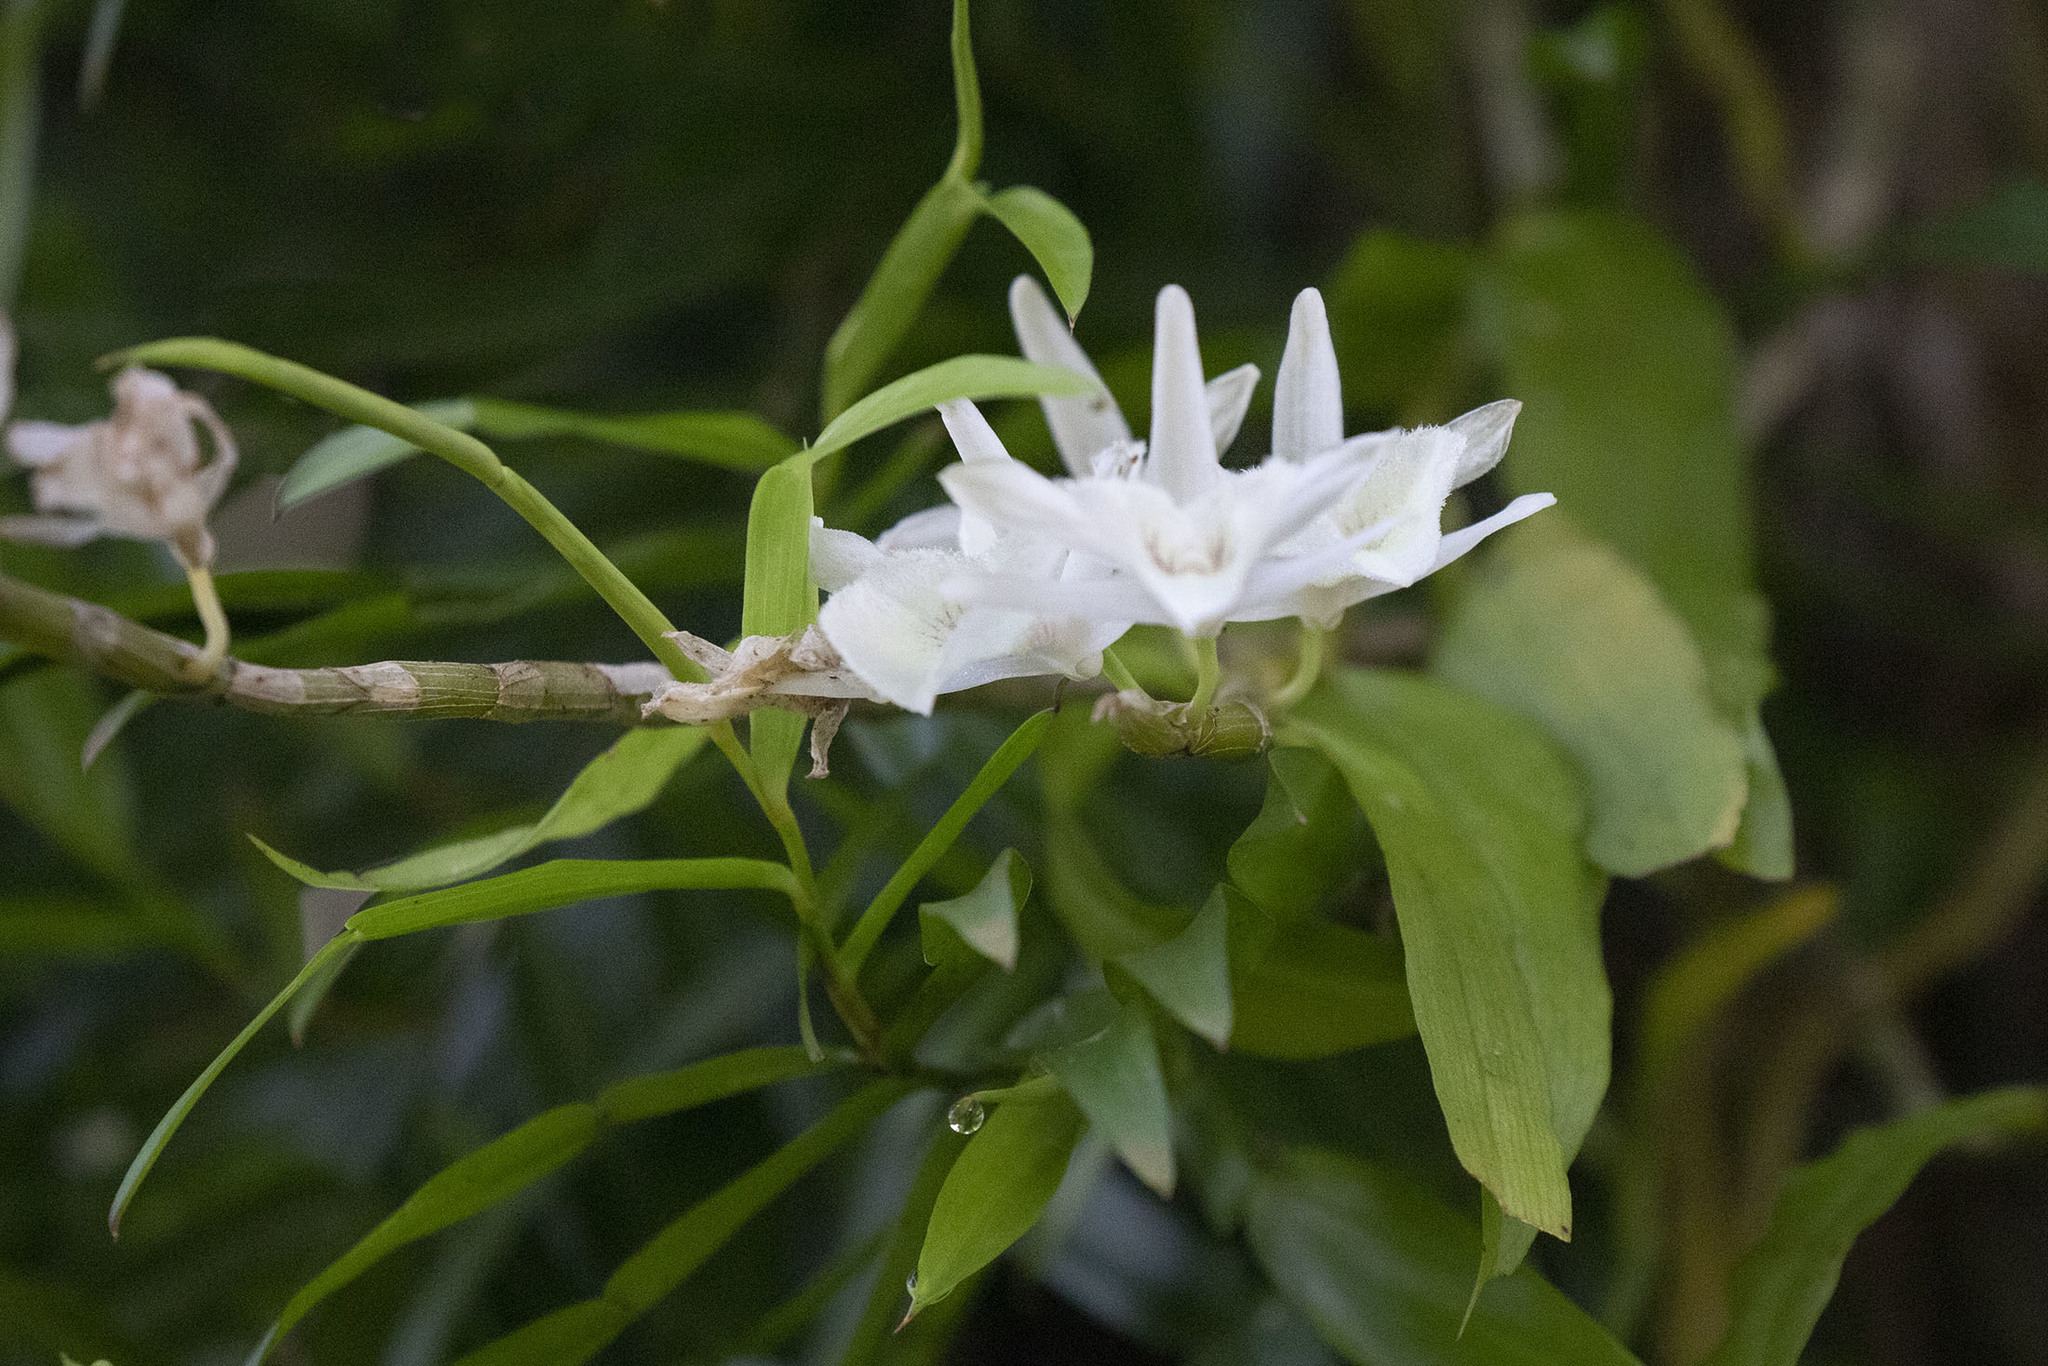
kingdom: Plantae
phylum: Tracheophyta
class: Liliopsida
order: Asparagales
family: Orchidaceae
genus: Dendrobium
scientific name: Dendrobium polyanthum
